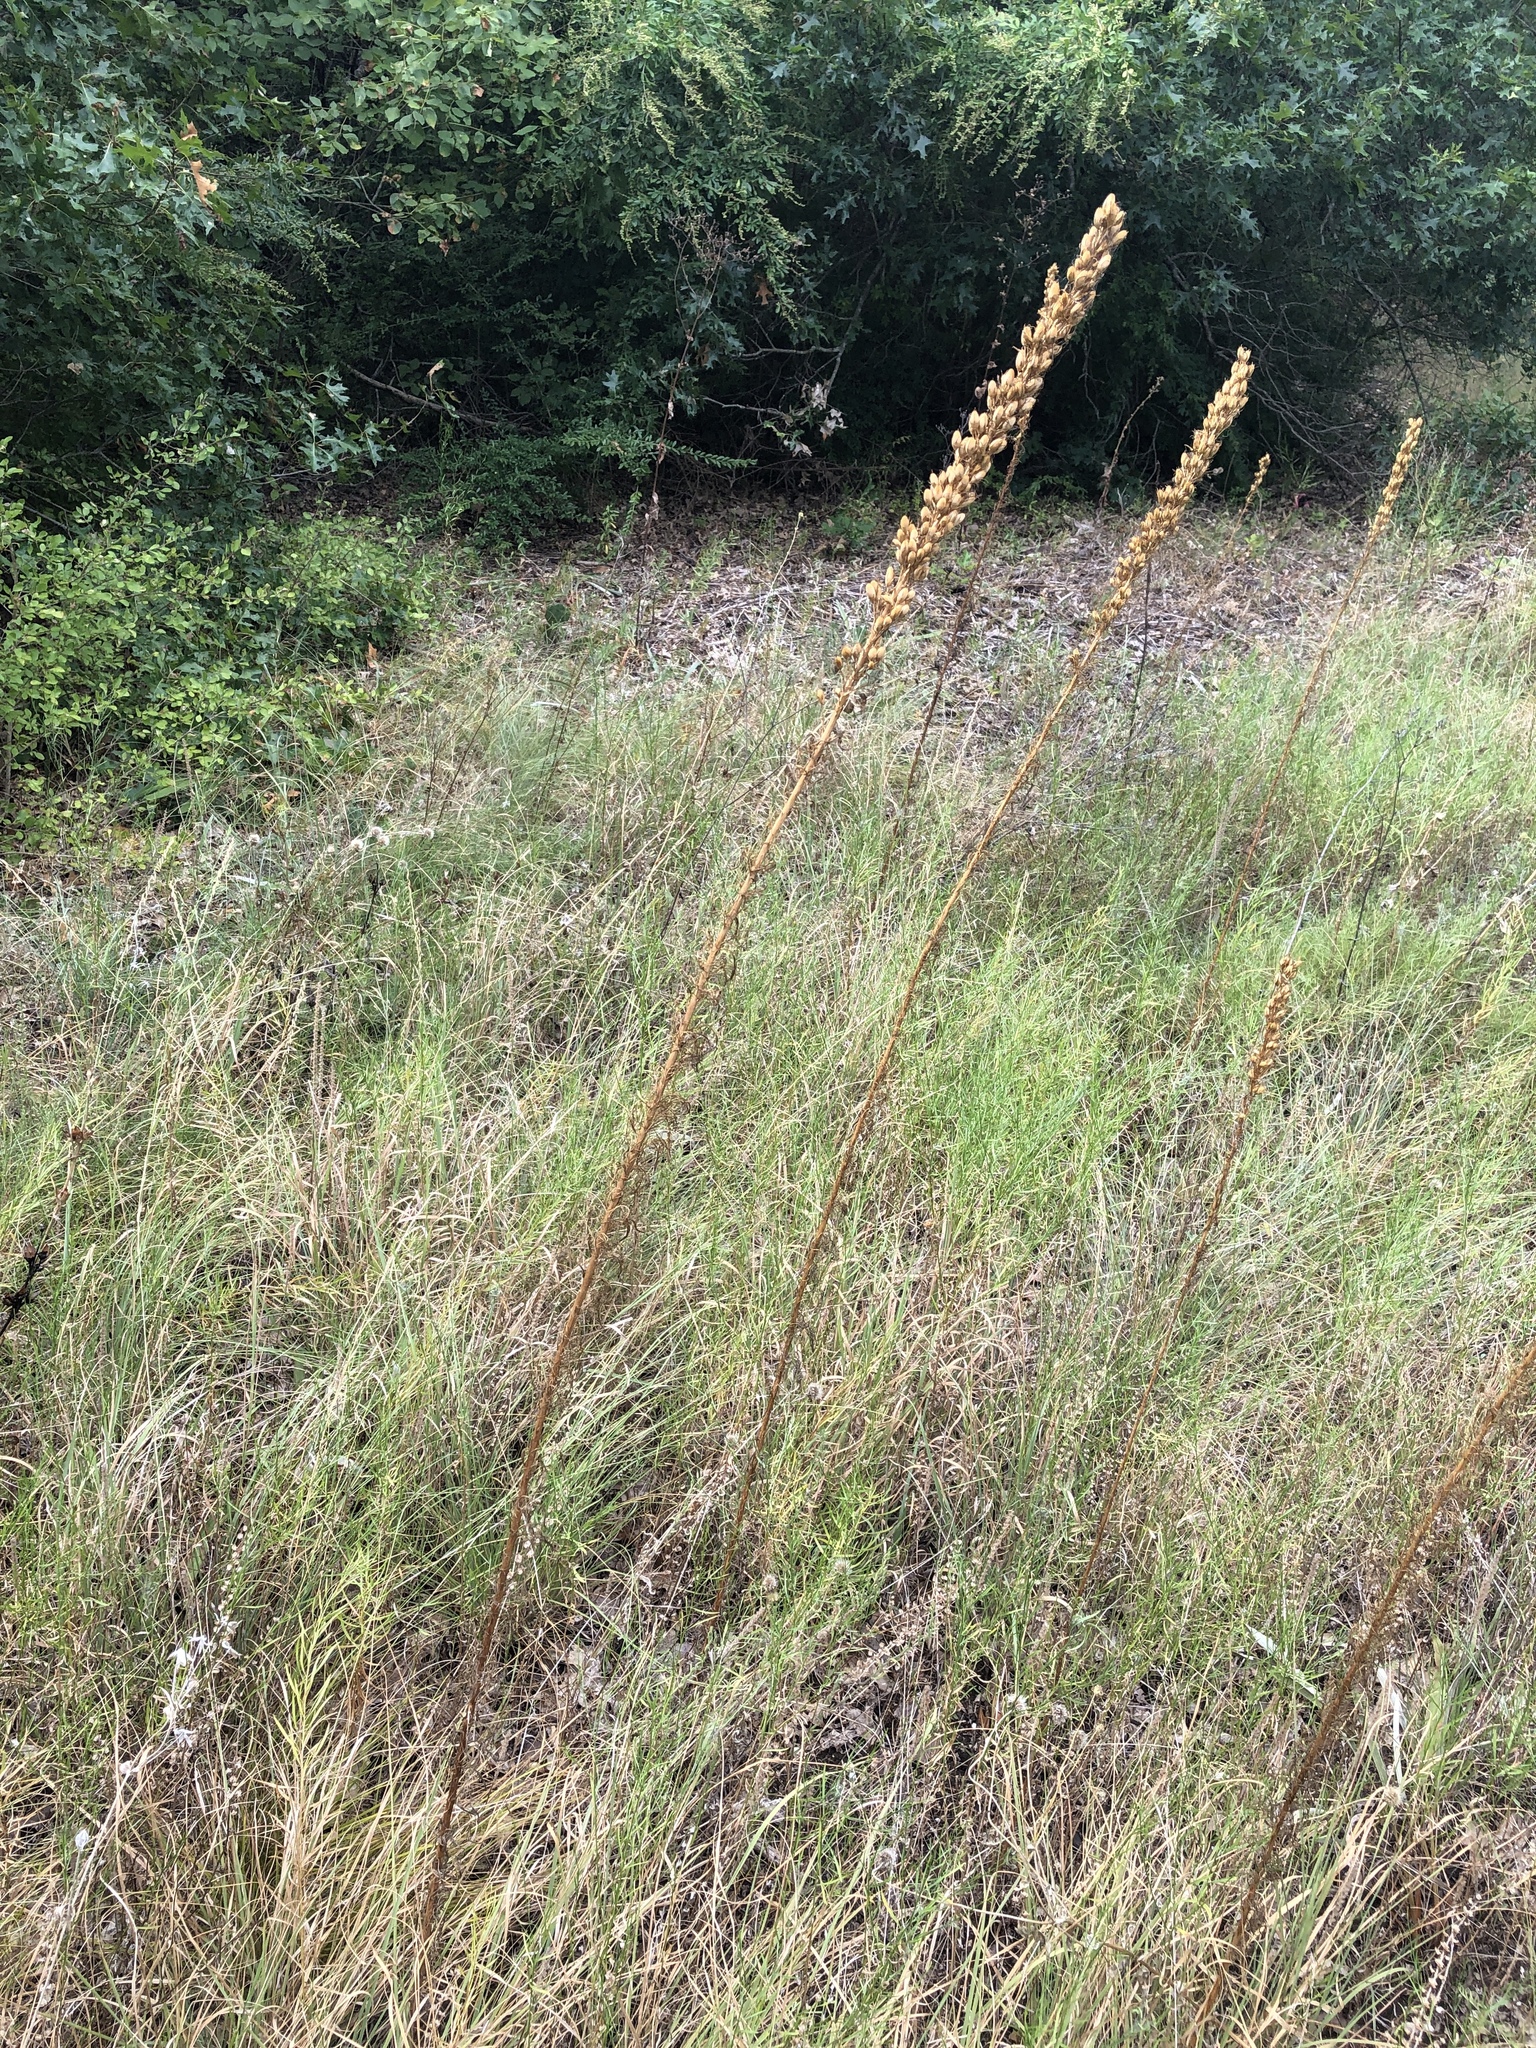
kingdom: Plantae
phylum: Tracheophyta
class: Magnoliopsida
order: Ericales
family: Polemoniaceae
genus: Ipomopsis
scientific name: Ipomopsis rubra
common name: Skyrocket
